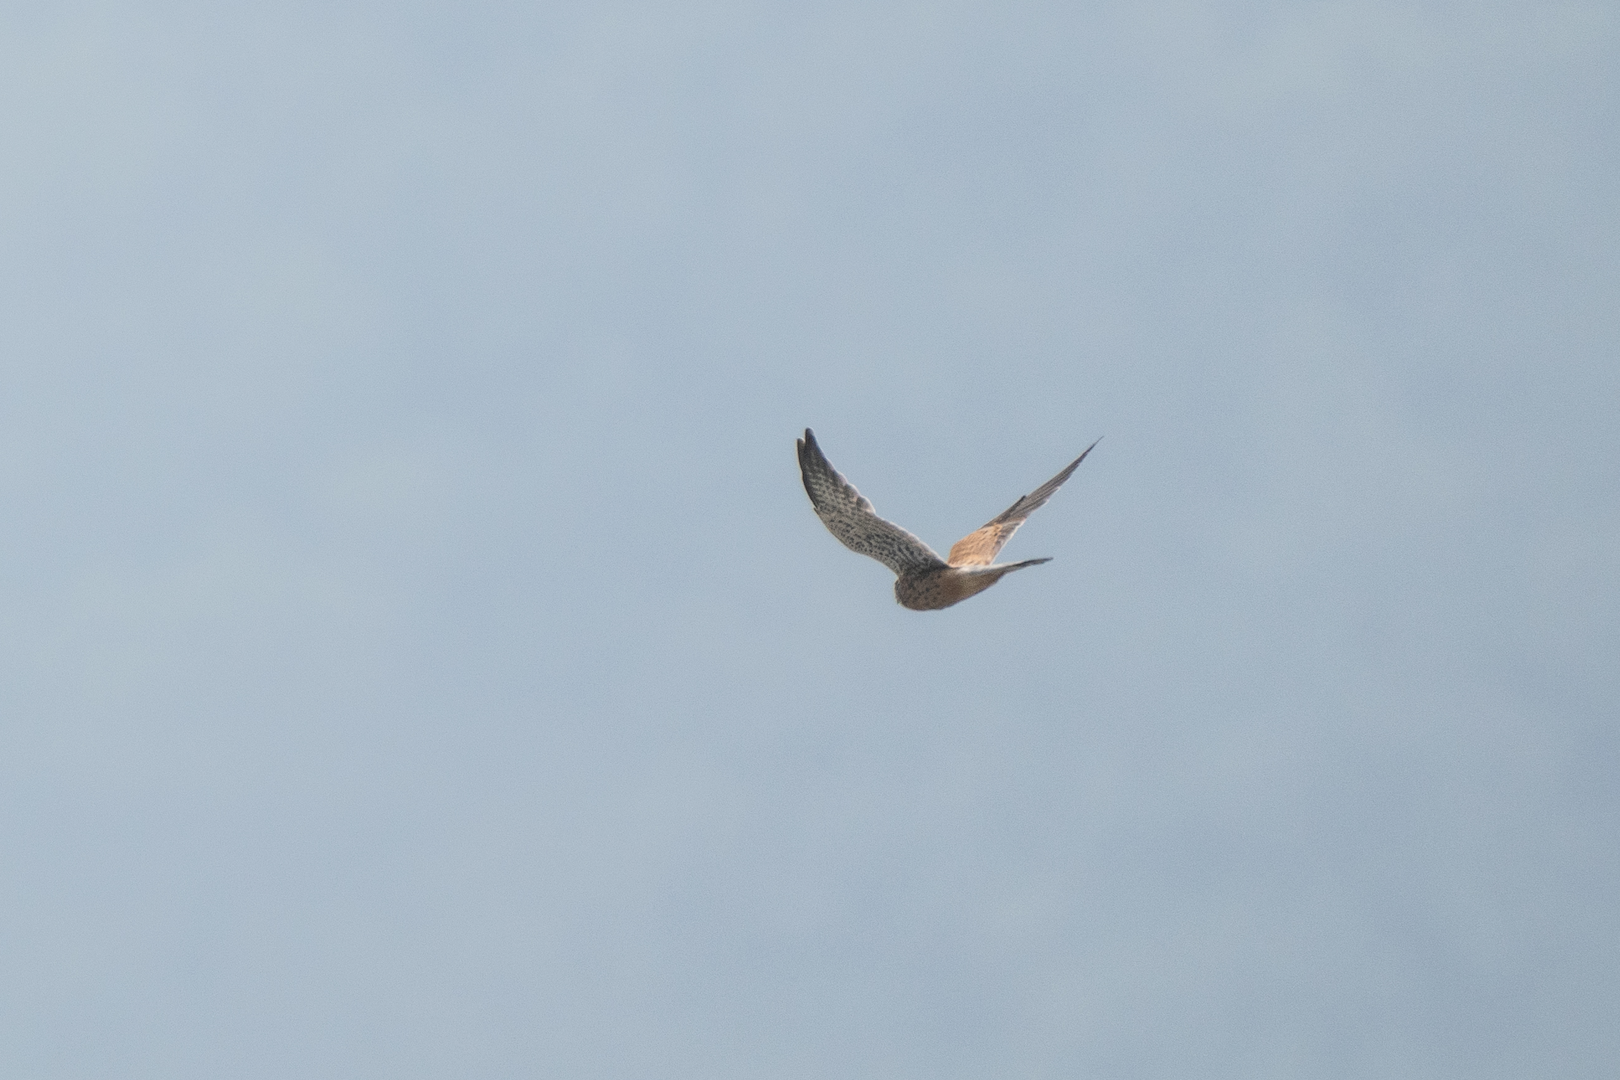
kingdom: Animalia
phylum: Chordata
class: Aves
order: Falconiformes
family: Falconidae
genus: Falco
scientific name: Falco tinnunculus
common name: Common kestrel
